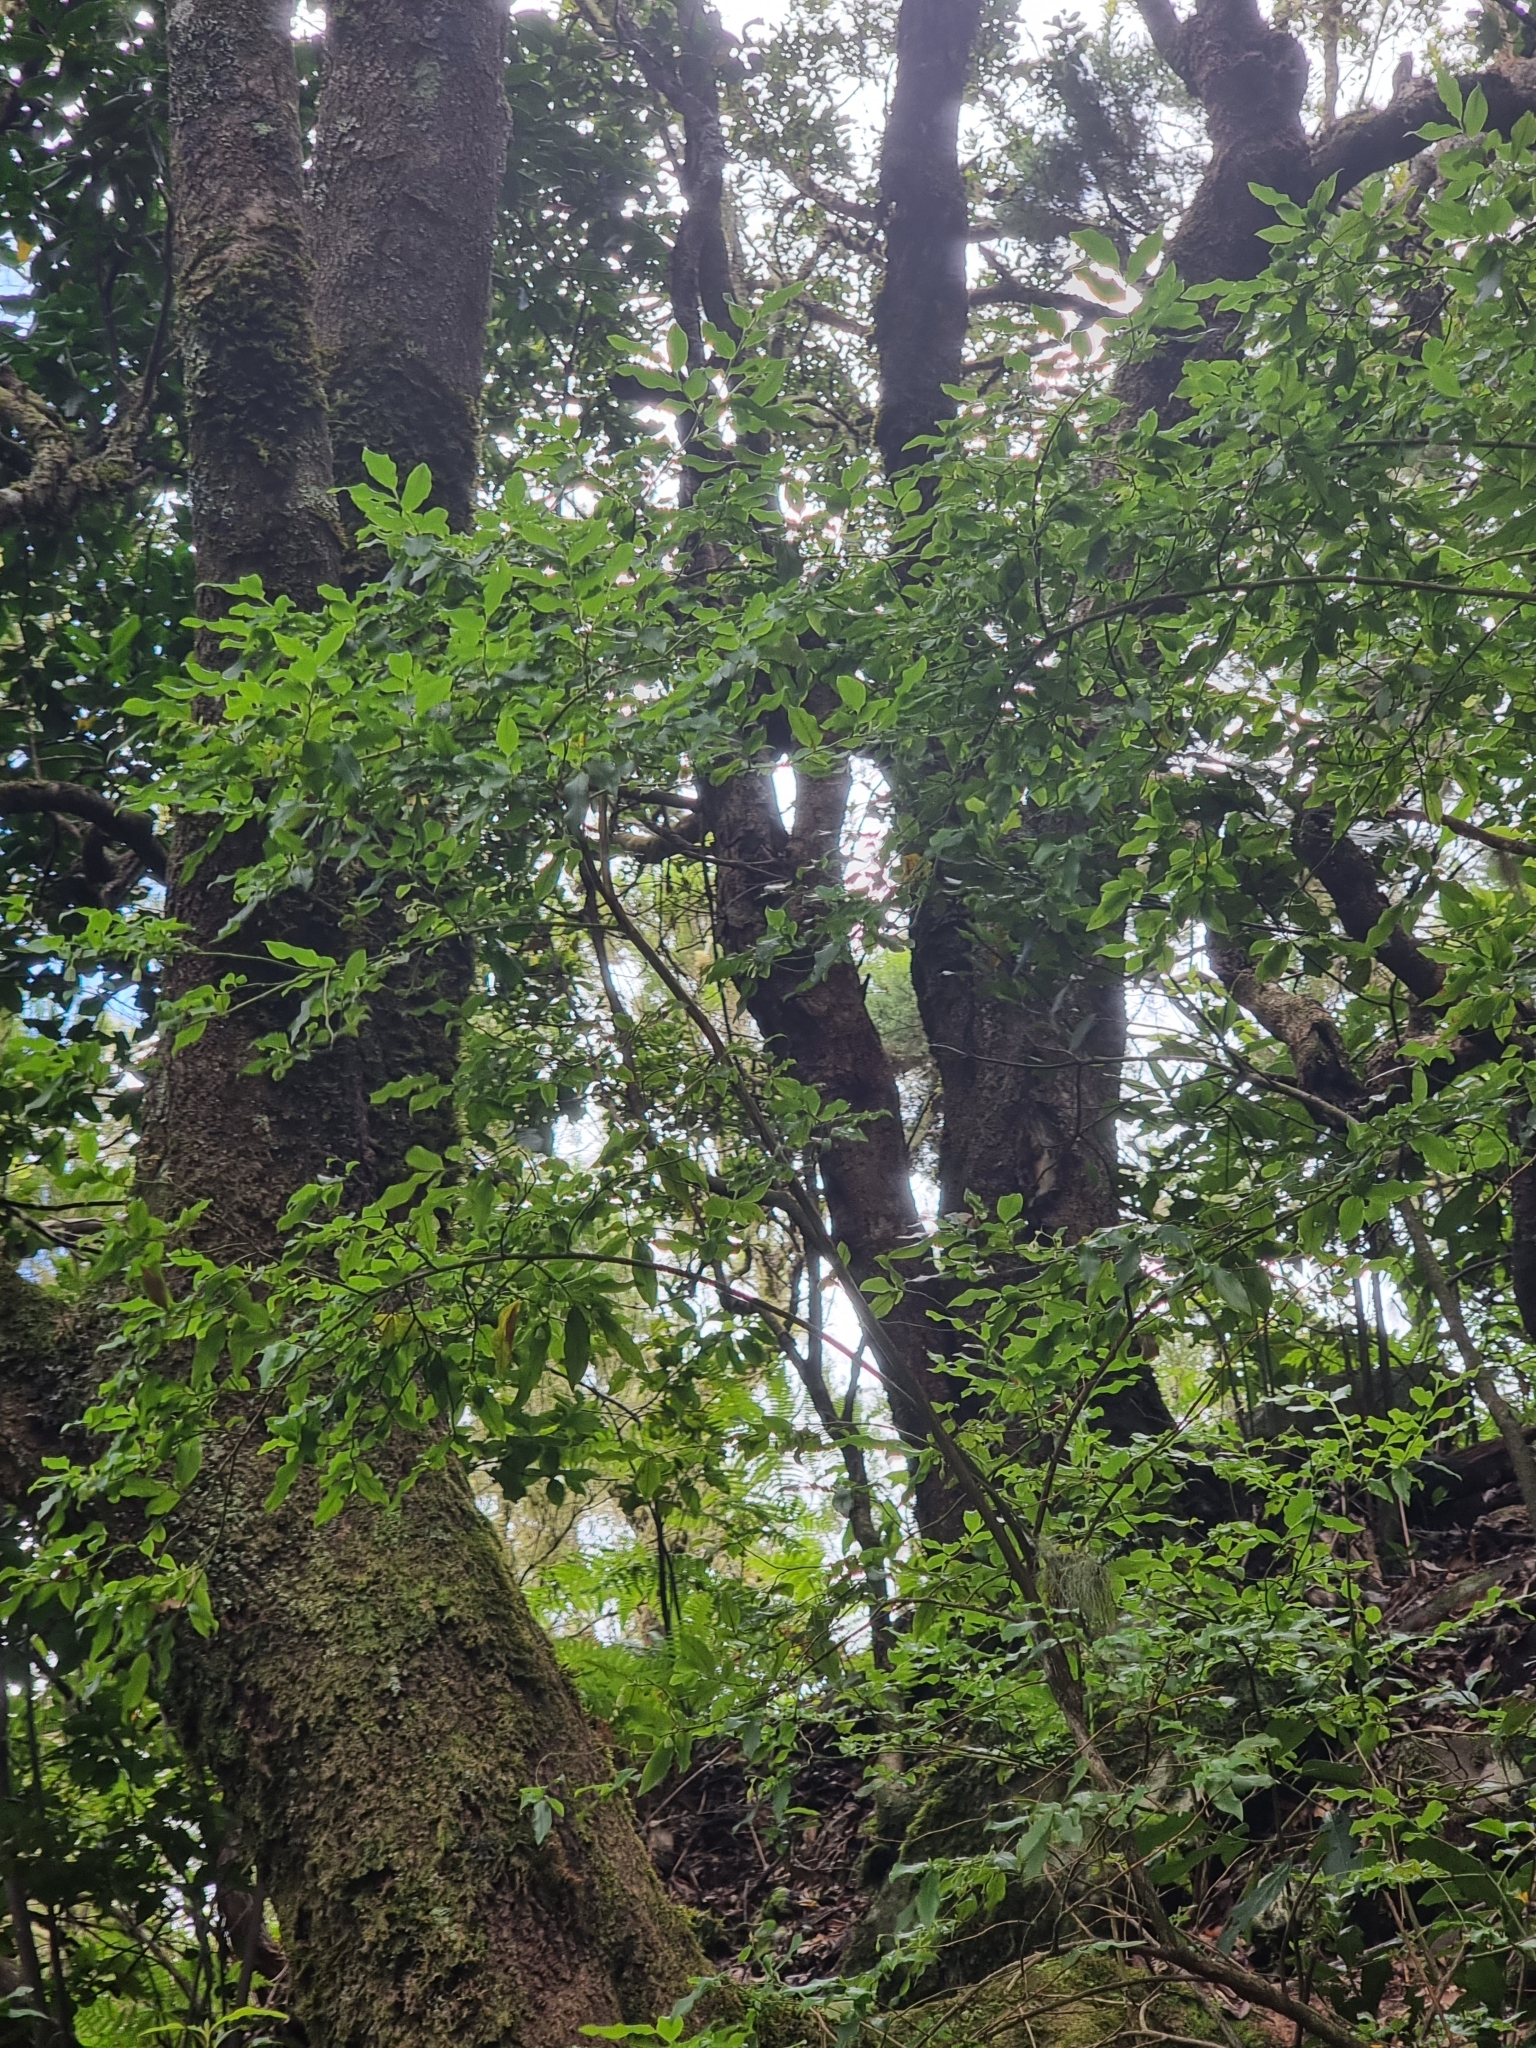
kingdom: Plantae
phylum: Tracheophyta
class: Magnoliopsida
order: Ericales
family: Ericaceae
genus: Vaccinium
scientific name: Vaccinium padifolium
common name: Madeiran blueberry
